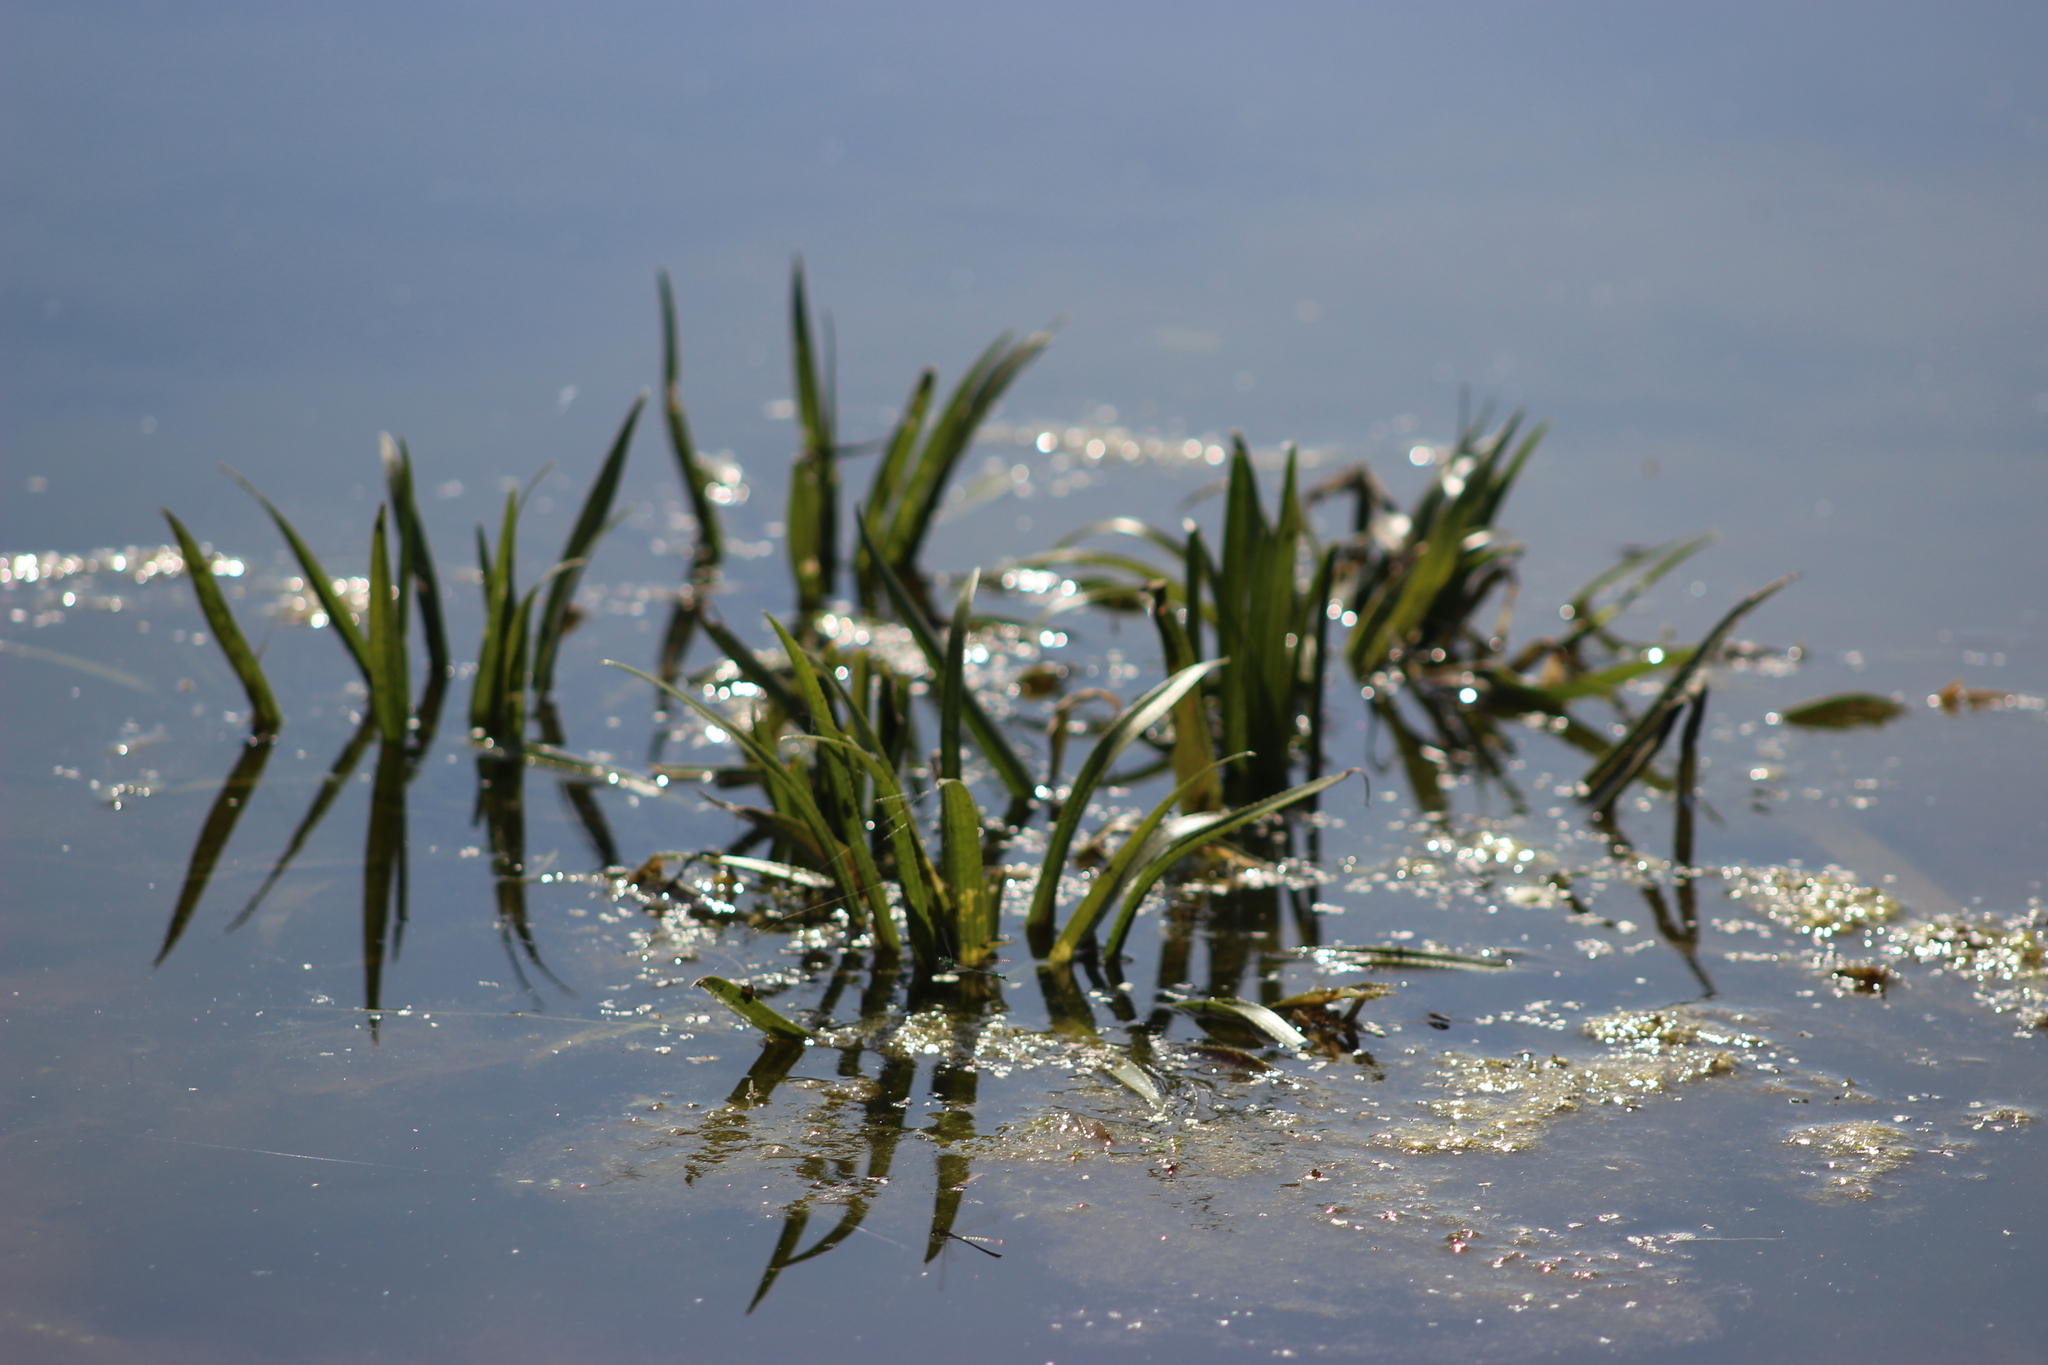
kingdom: Plantae
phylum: Tracheophyta
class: Liliopsida
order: Alismatales
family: Hydrocharitaceae
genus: Stratiotes
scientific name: Stratiotes aloides
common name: Water-soldier
